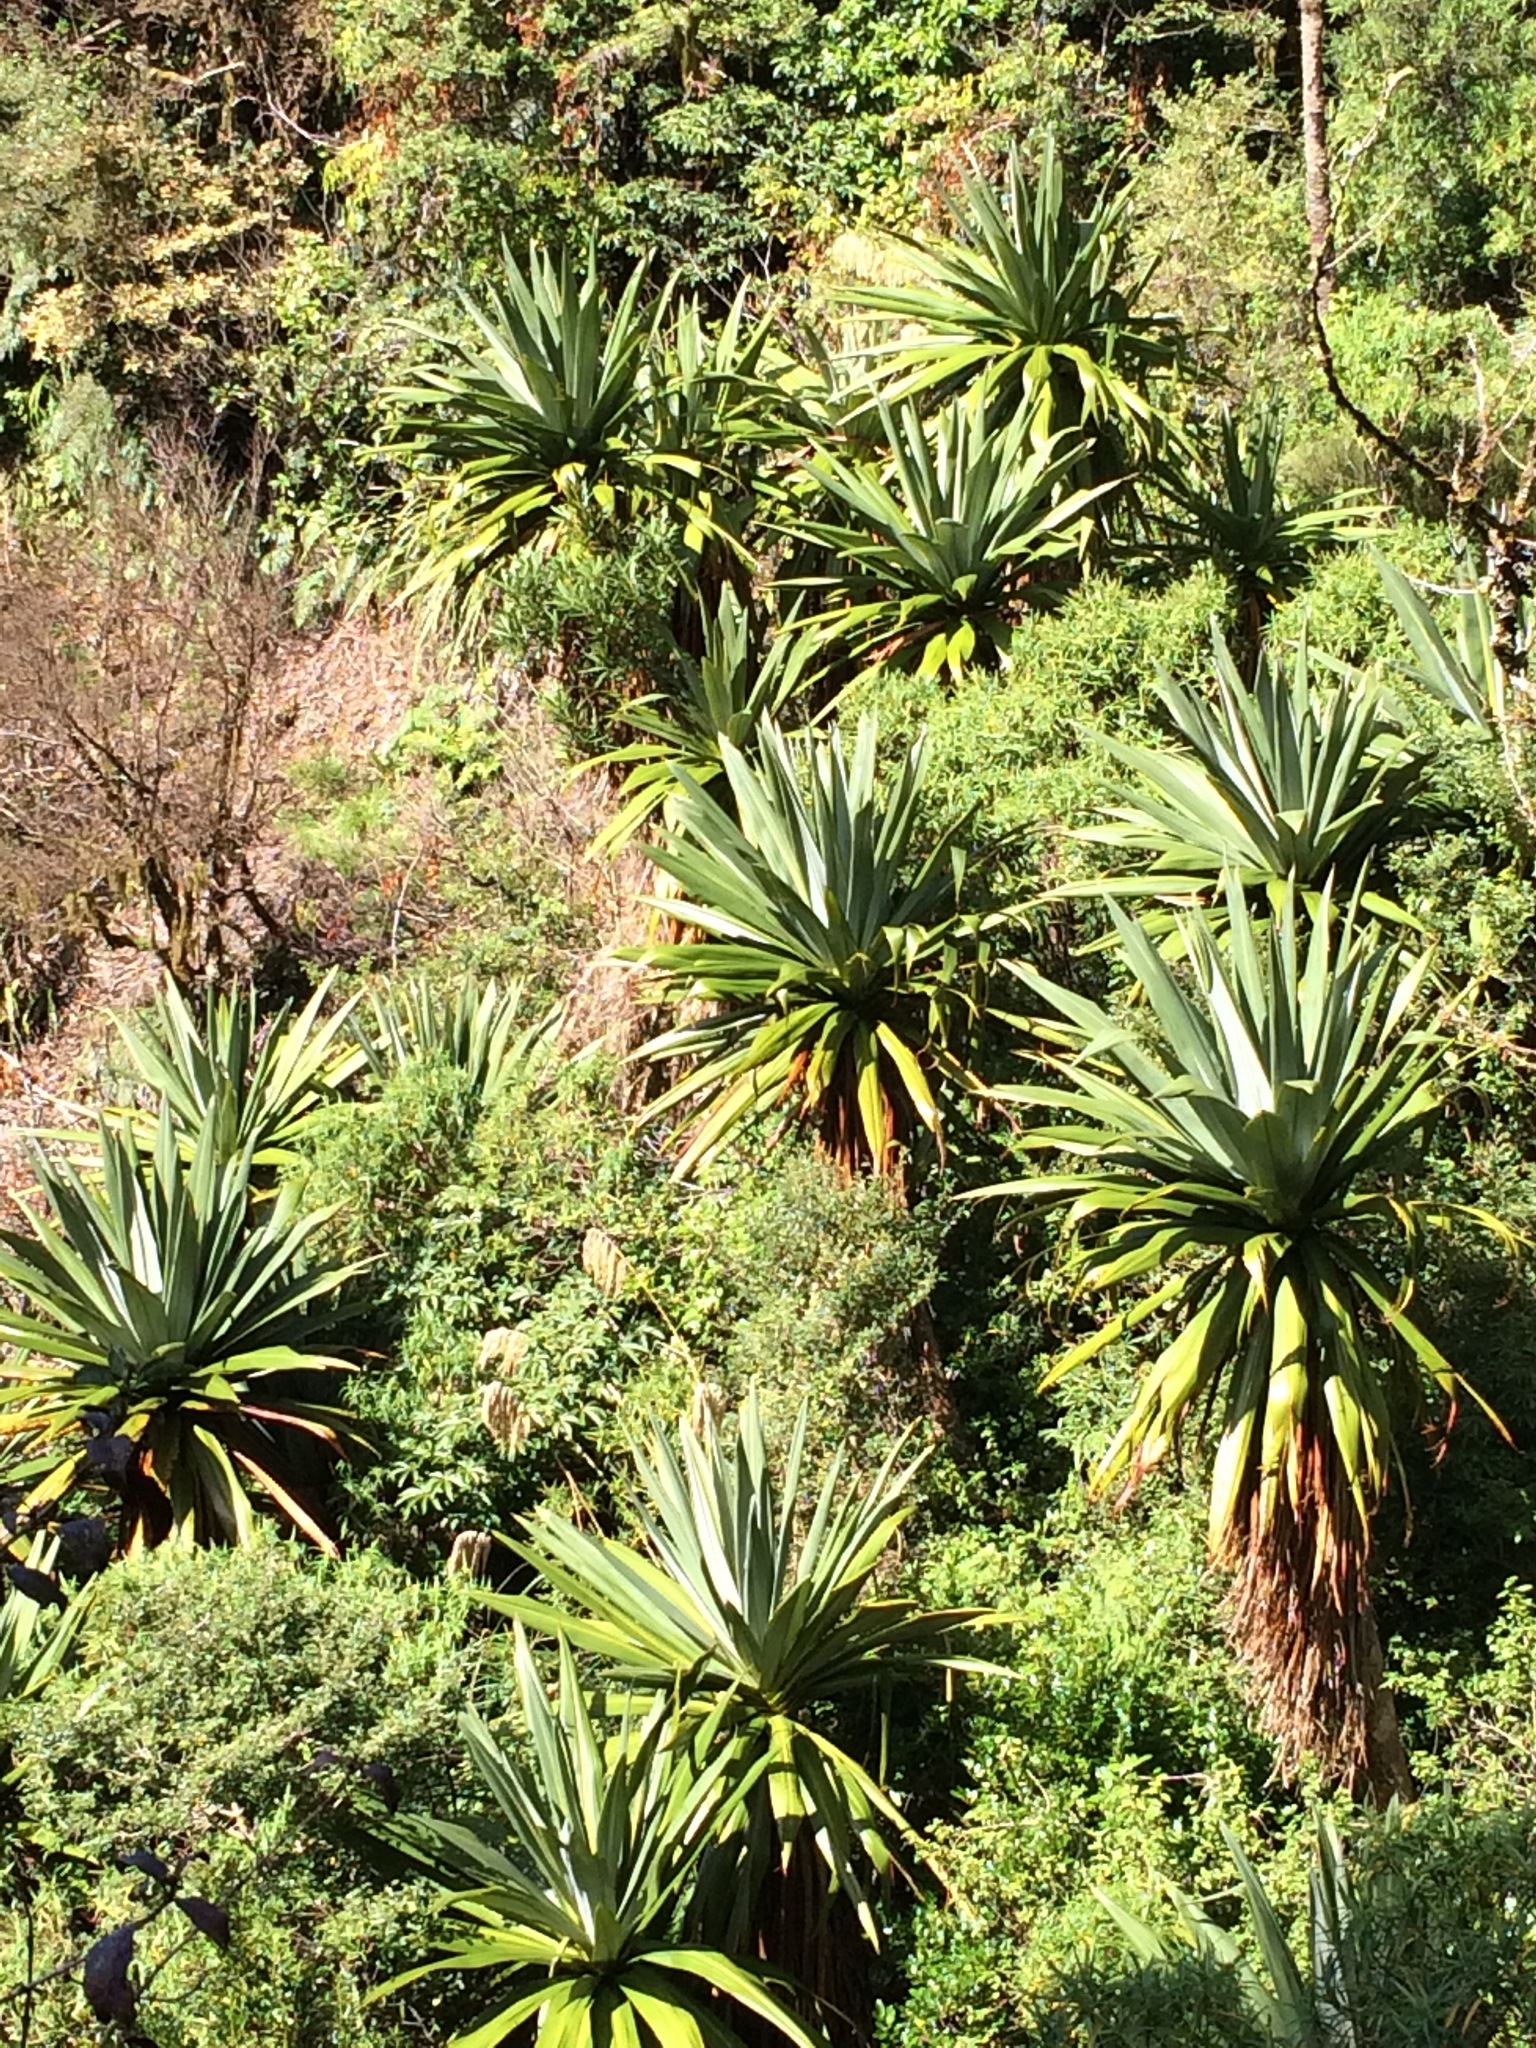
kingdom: Plantae
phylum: Tracheophyta
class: Liliopsida
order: Asparagales
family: Asparagaceae
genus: Cordyline
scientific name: Cordyline indivisa
